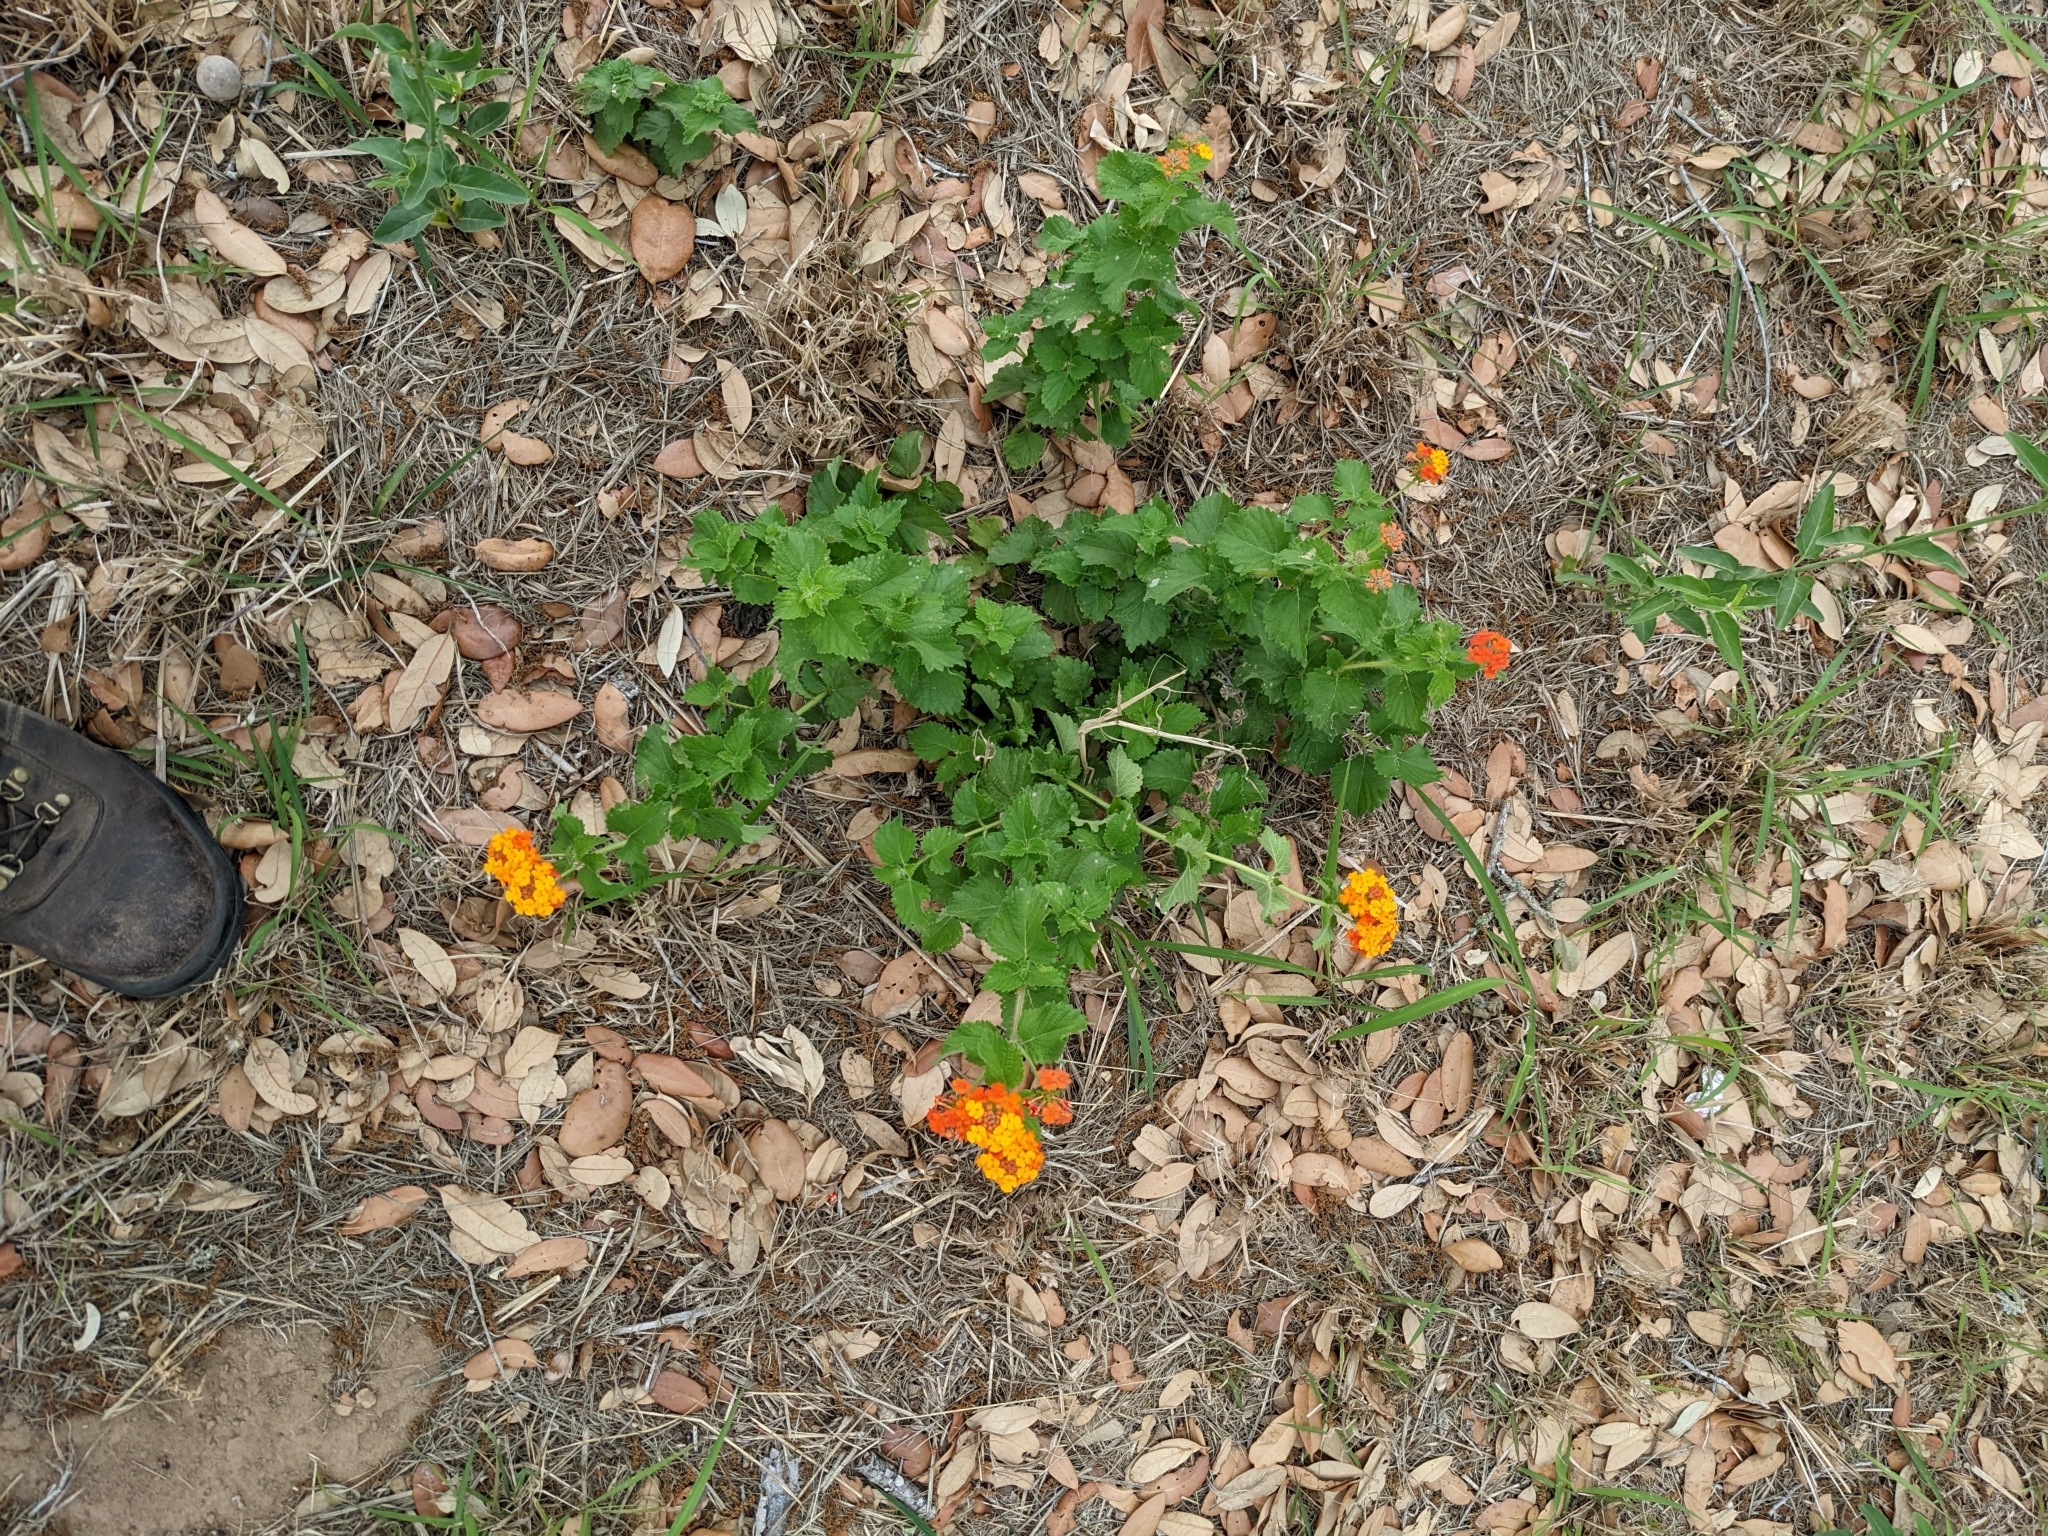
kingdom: Plantae
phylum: Tracheophyta
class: Magnoliopsida
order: Lamiales
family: Verbenaceae
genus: Lantana
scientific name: Lantana urticoides
